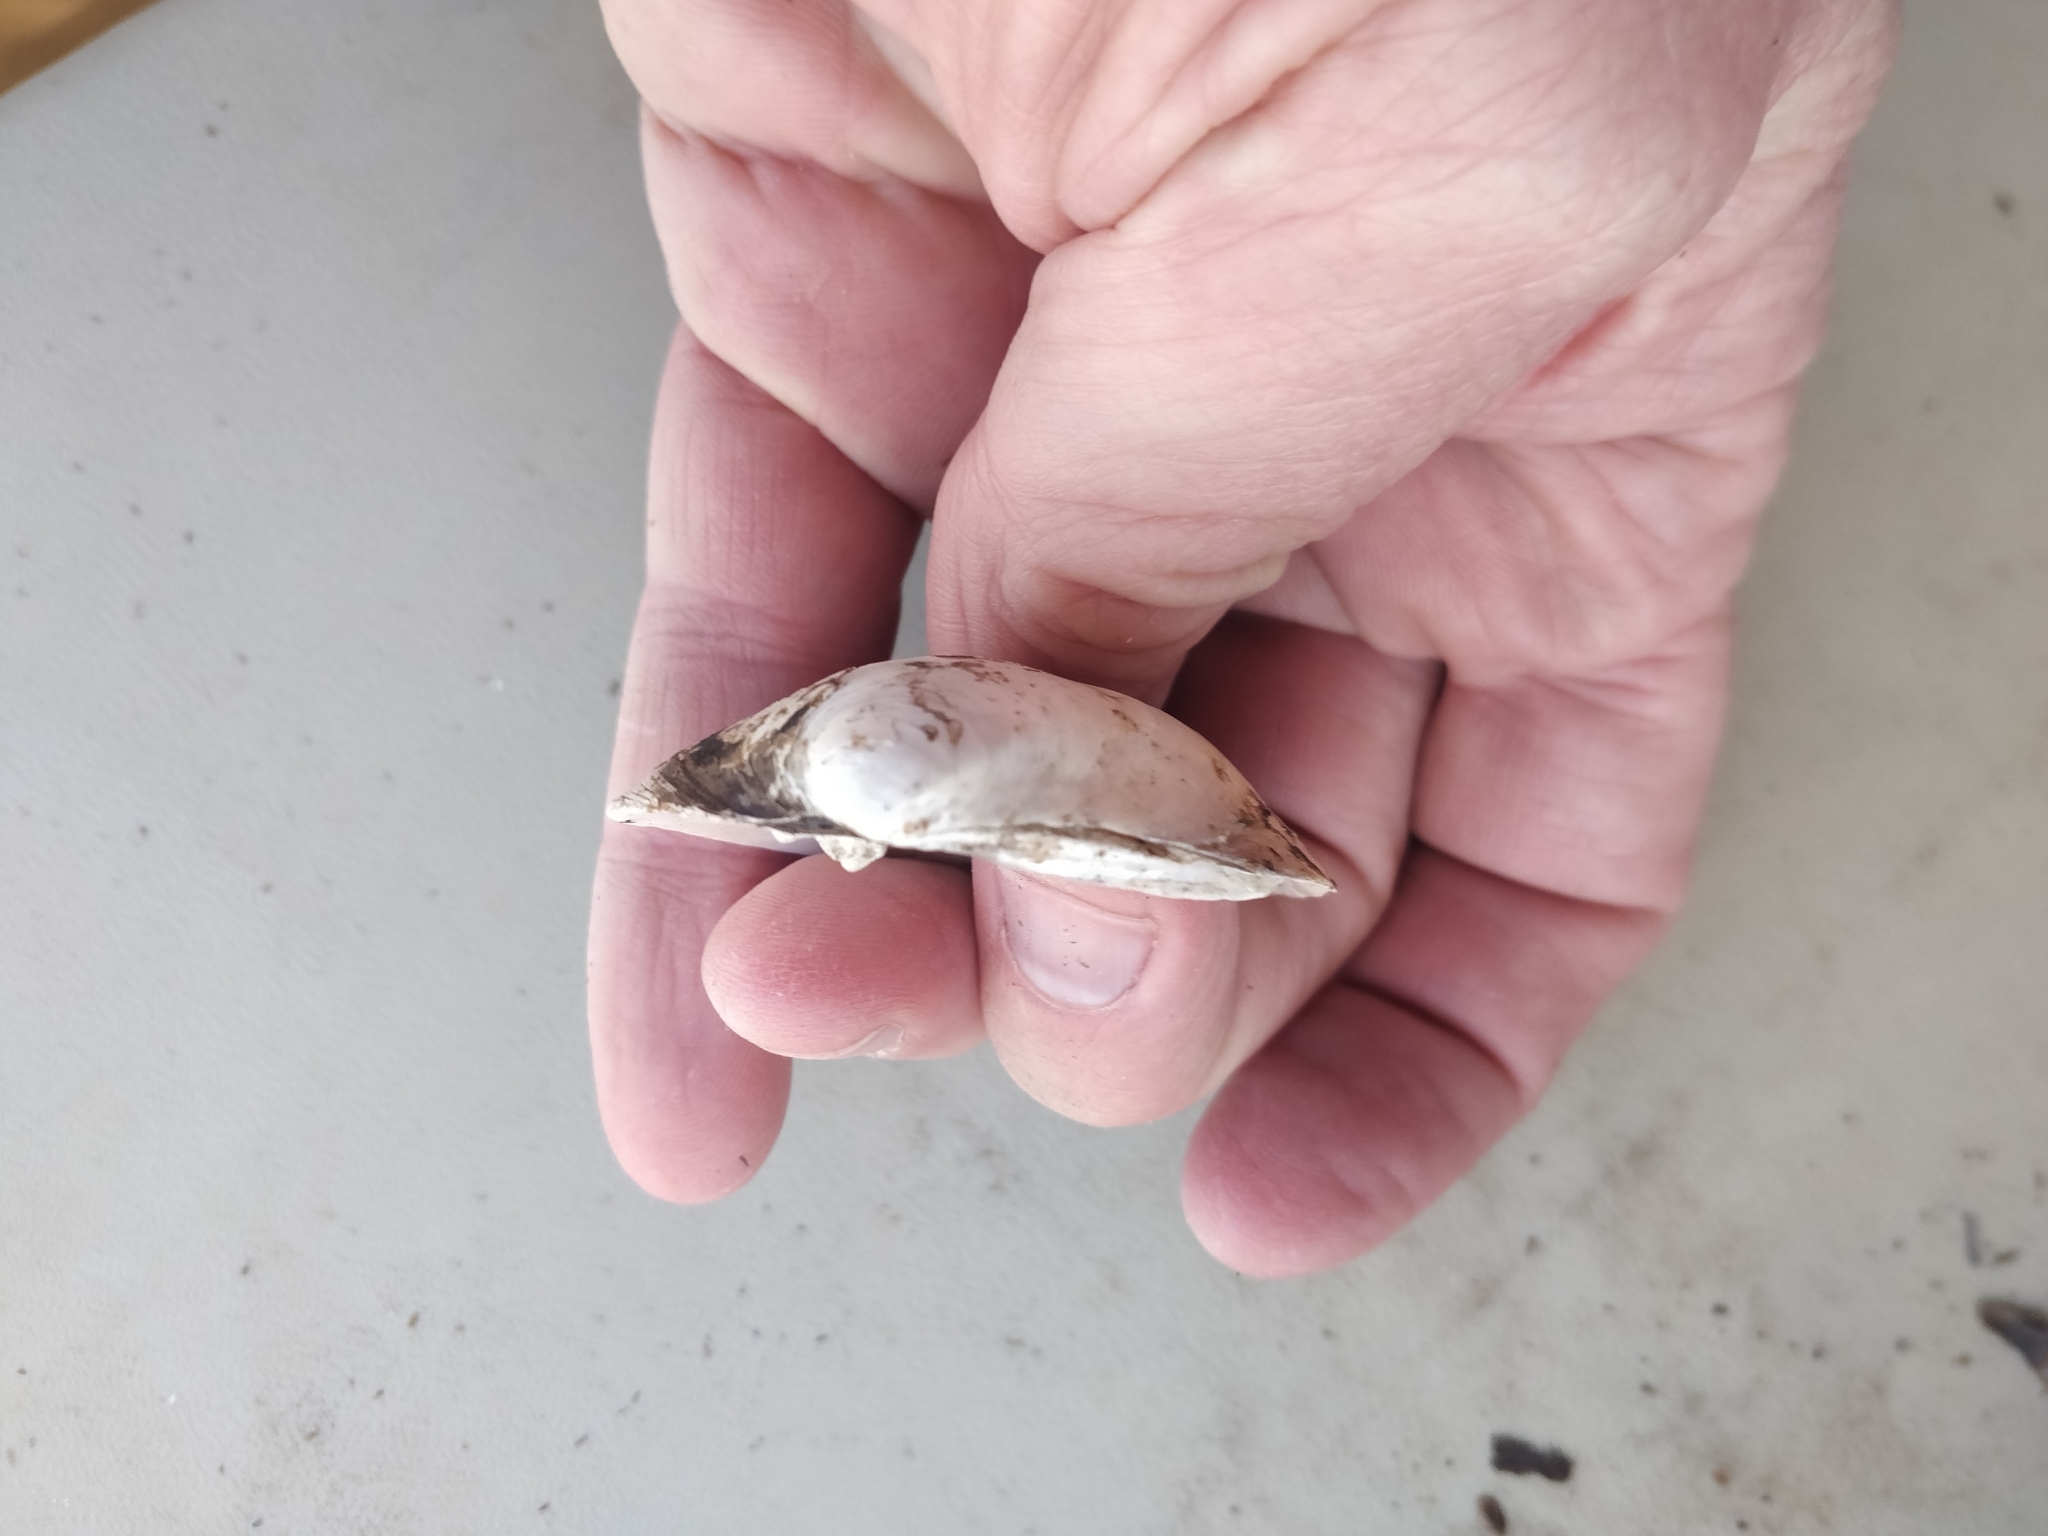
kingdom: Animalia
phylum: Mollusca
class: Bivalvia
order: Unionida
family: Unionidae
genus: Cyclonaias
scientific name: Cyclonaias pustulosa
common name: Pimpleback
